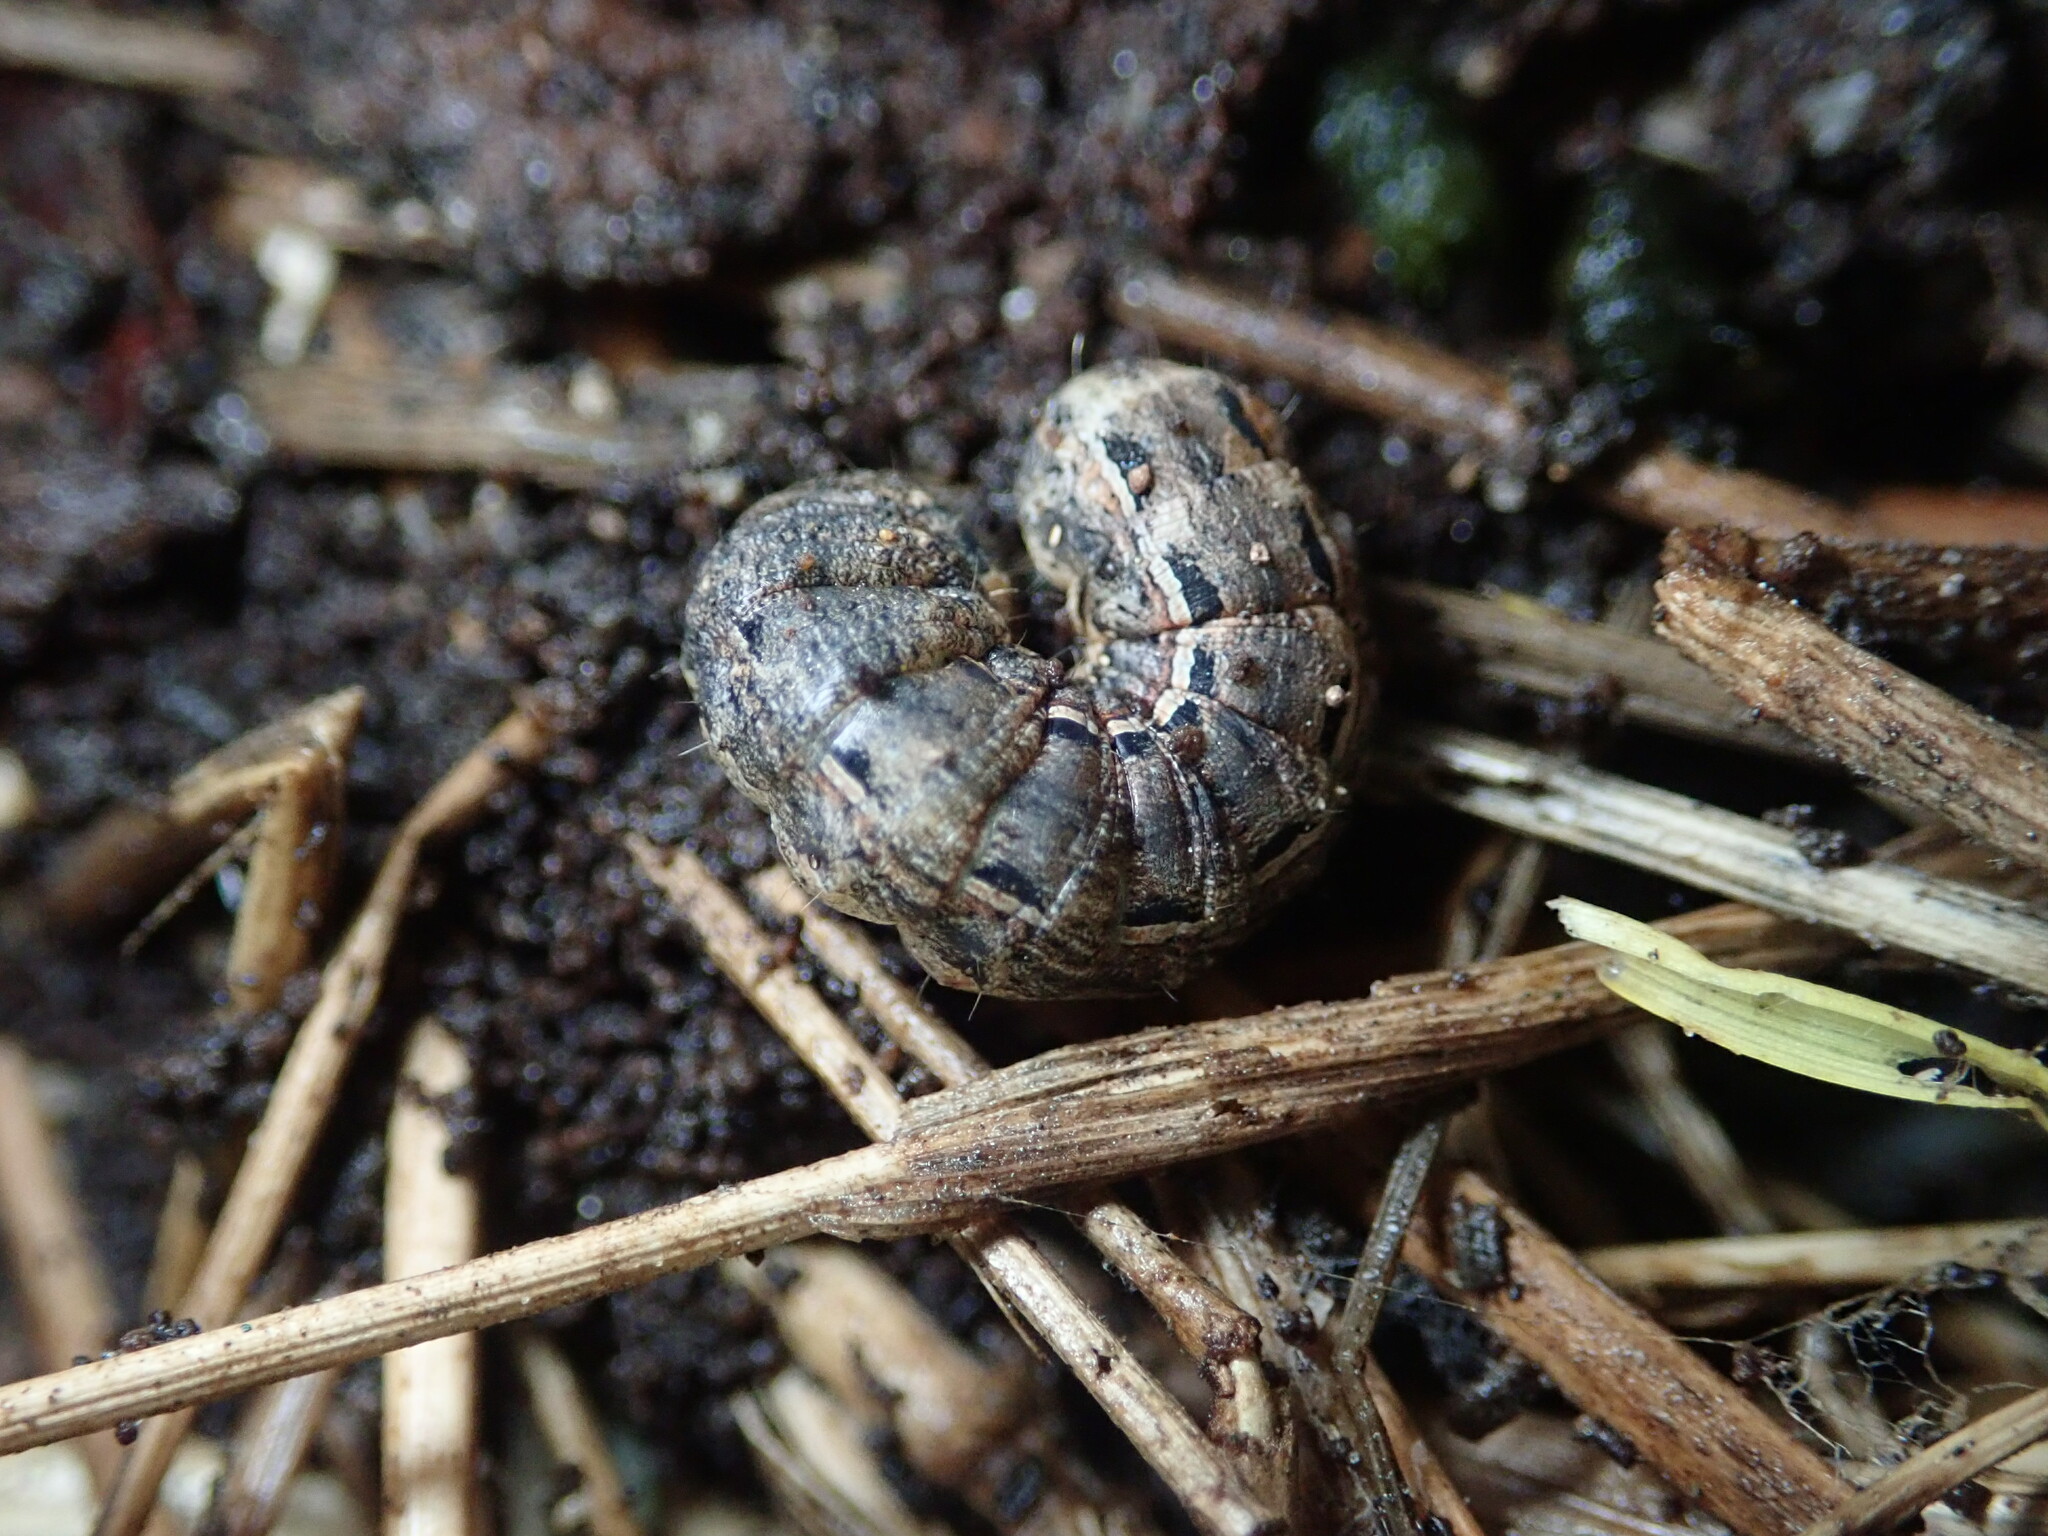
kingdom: Animalia
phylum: Arthropoda
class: Insecta
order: Lepidoptera
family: Noctuidae
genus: Noctua
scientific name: Noctua pronuba
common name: Large yellow underwing
